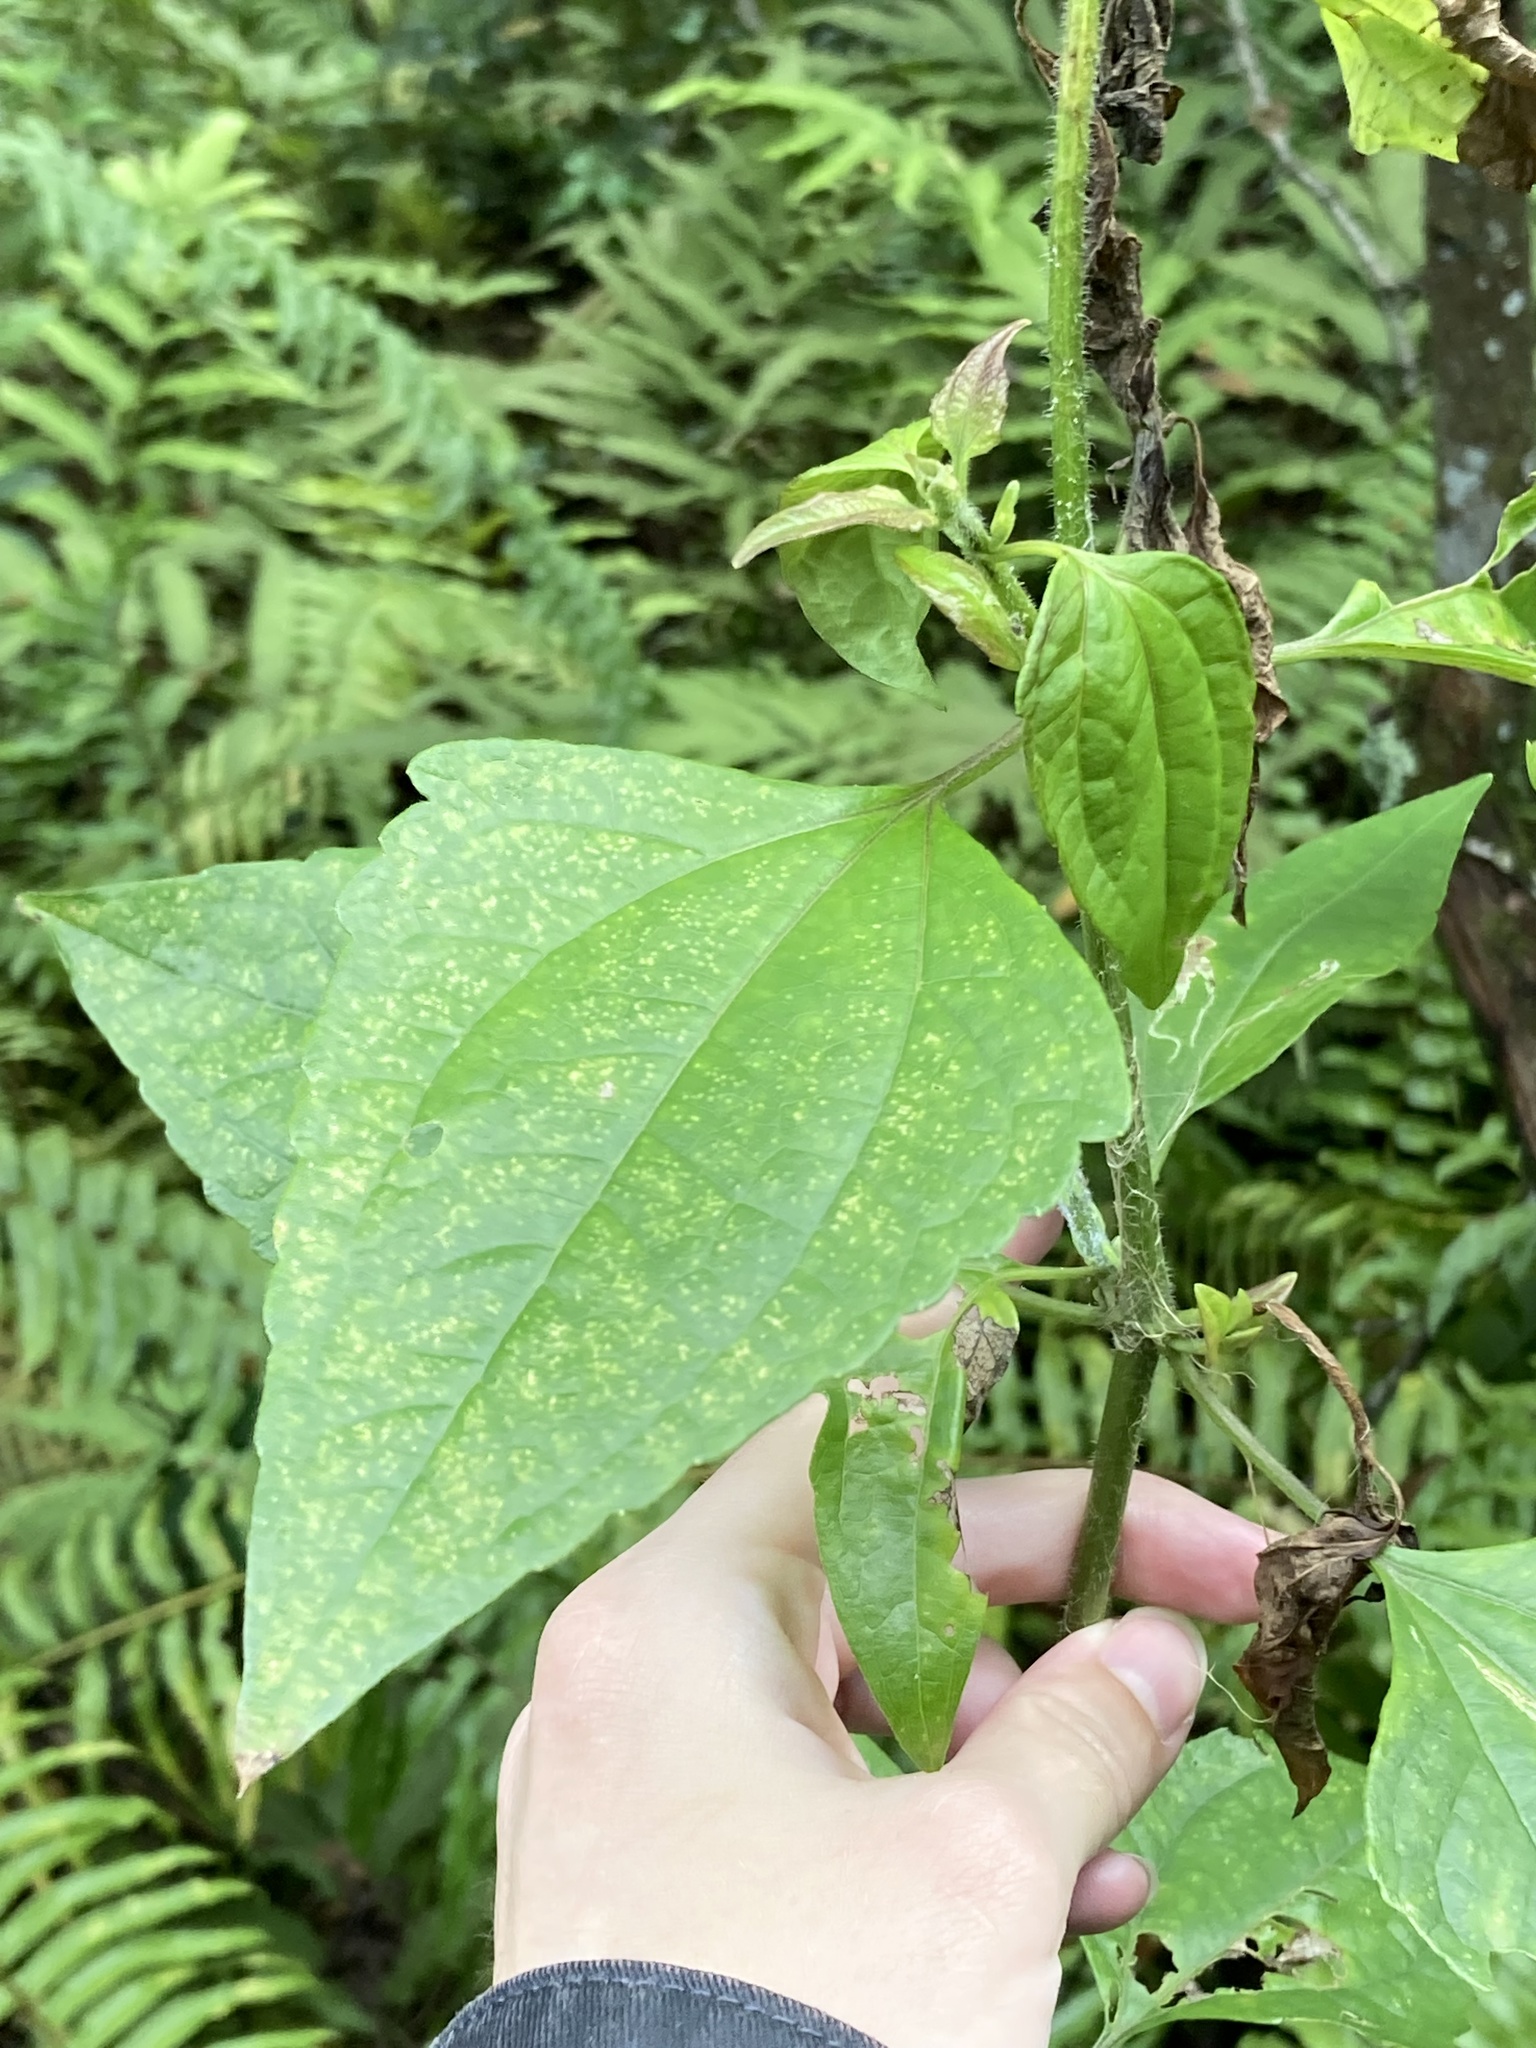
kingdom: Plantae
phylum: Tracheophyta
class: Magnoliopsida
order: Asterales
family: Asteraceae
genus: Chromolaena
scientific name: Chromolaena odorata
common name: Siamweed
